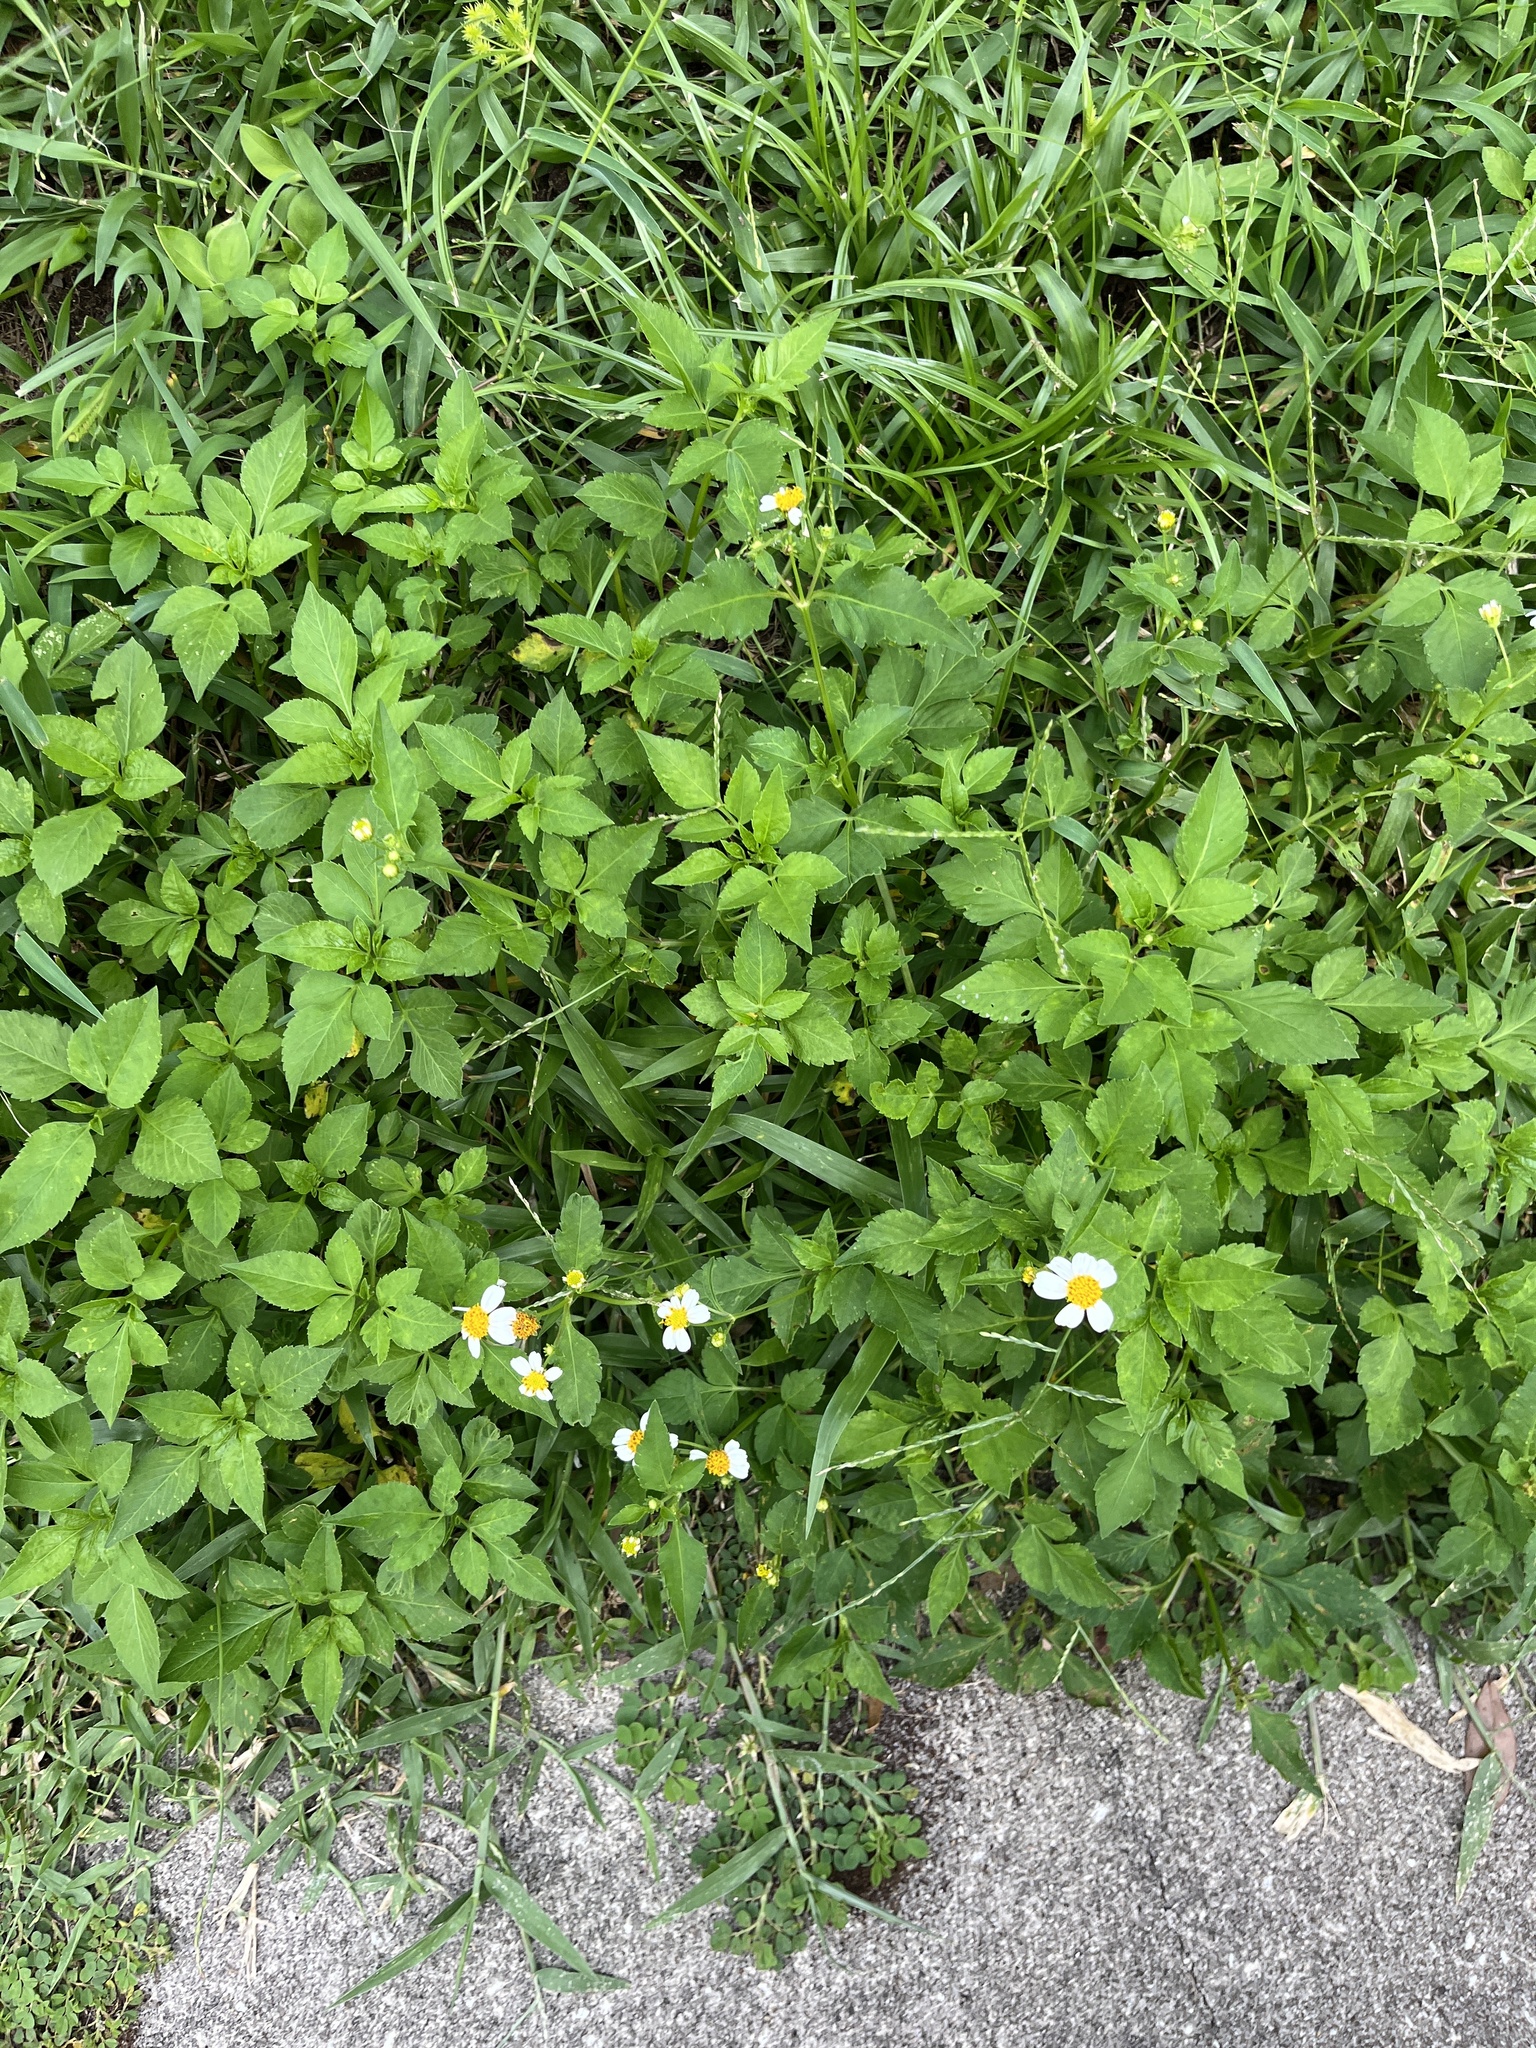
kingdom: Plantae
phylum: Tracheophyta
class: Magnoliopsida
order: Asterales
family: Asteraceae
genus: Bidens
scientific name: Bidens alba
